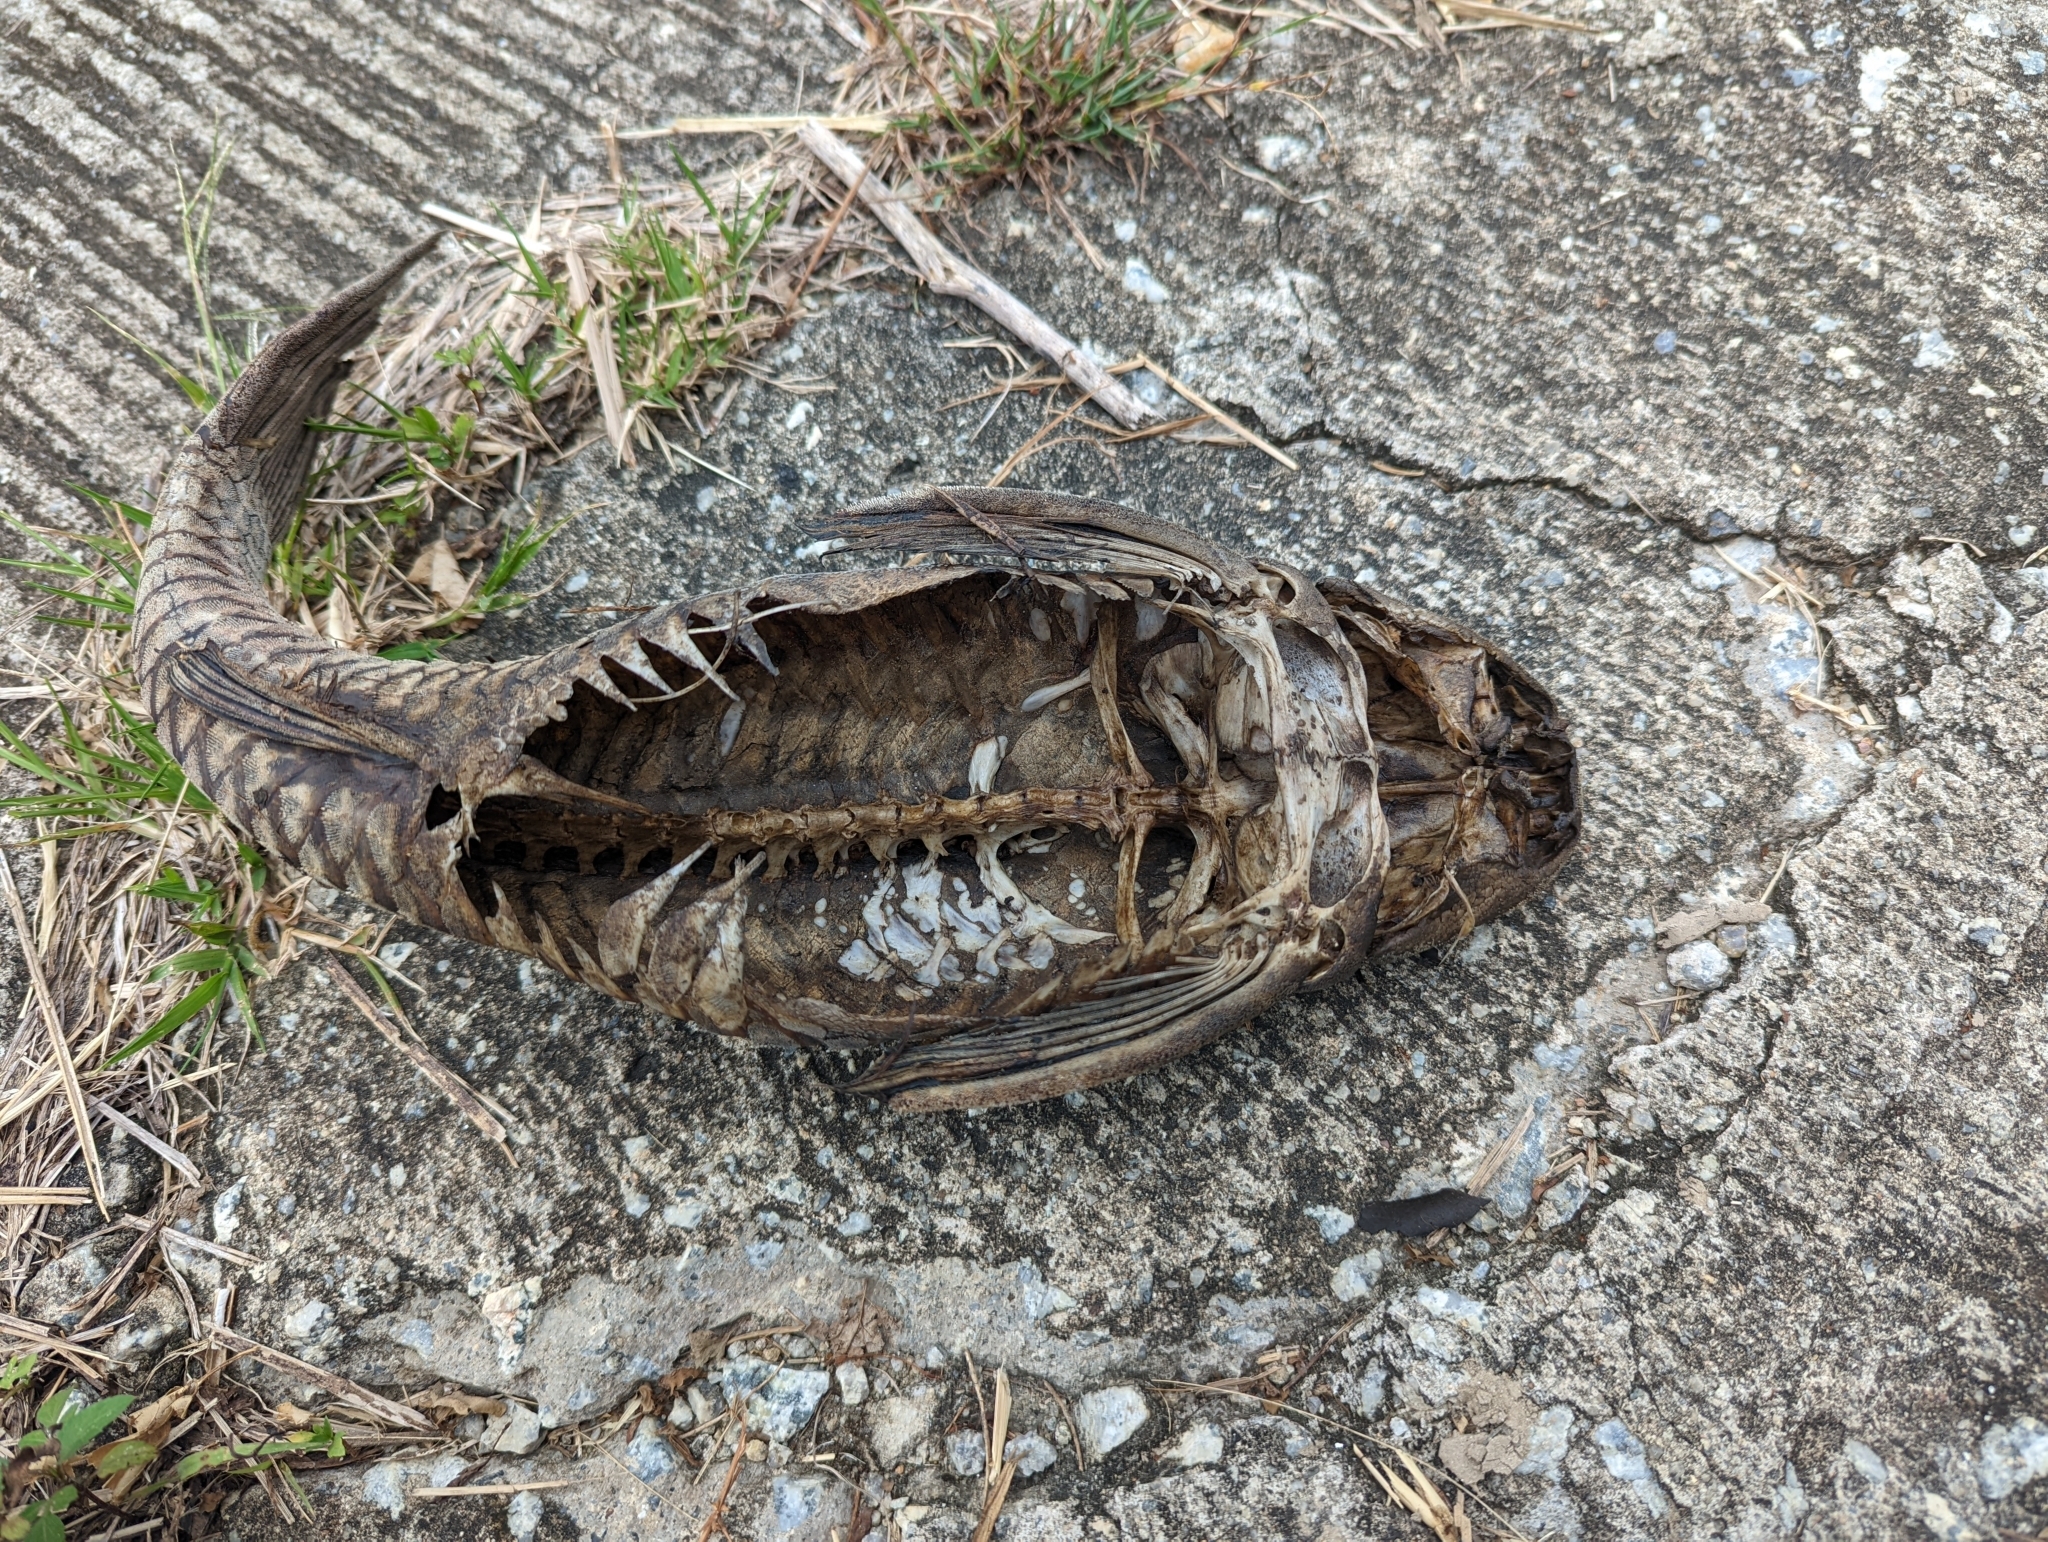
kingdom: Animalia
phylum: Chordata
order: Siluriformes
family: Loricariidae
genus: Pterygoplichthys
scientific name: Pterygoplichthys
